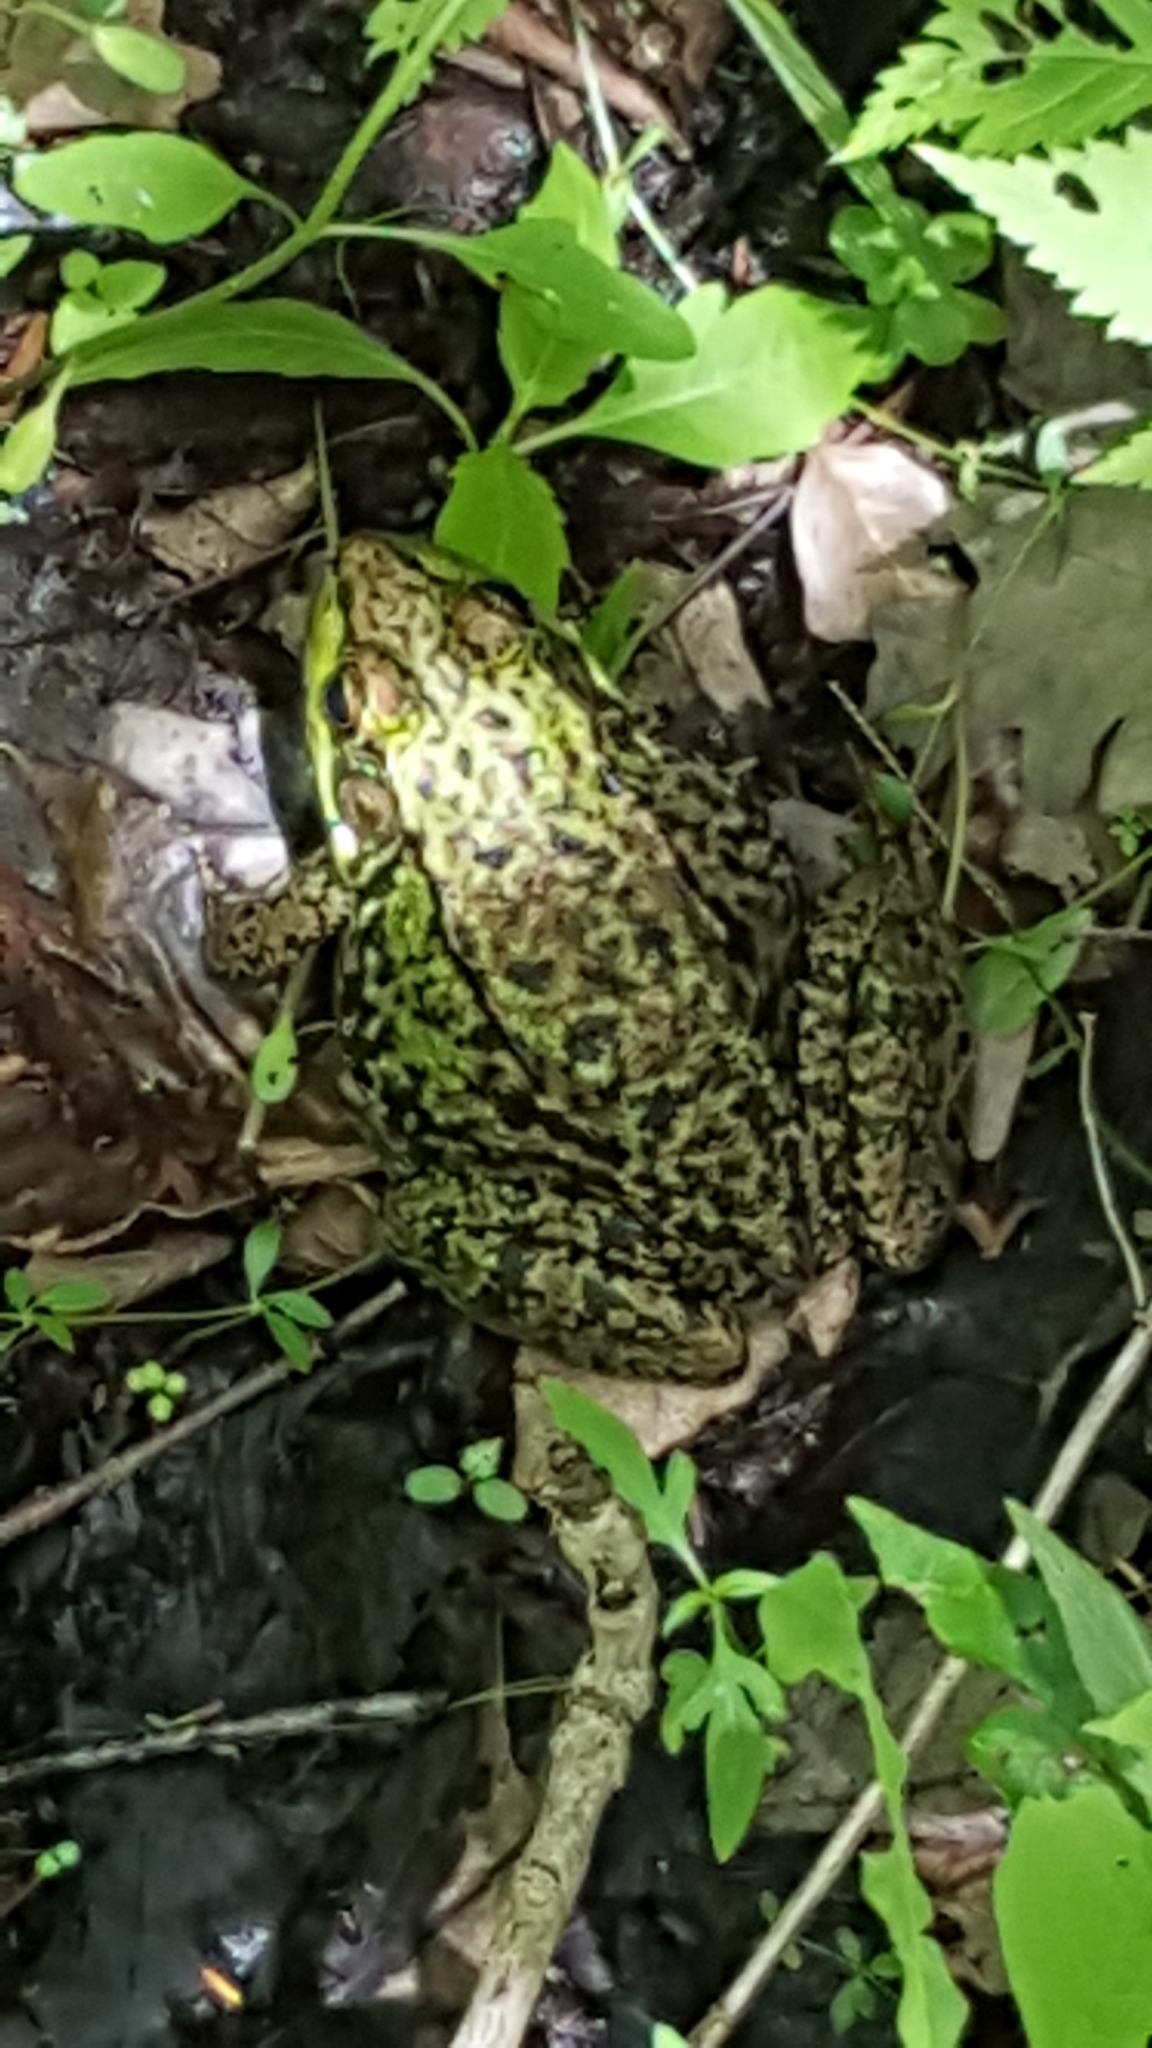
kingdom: Animalia
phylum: Chordata
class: Amphibia
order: Anura
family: Ranidae
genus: Lithobates
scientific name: Lithobates clamitans
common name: Green frog
